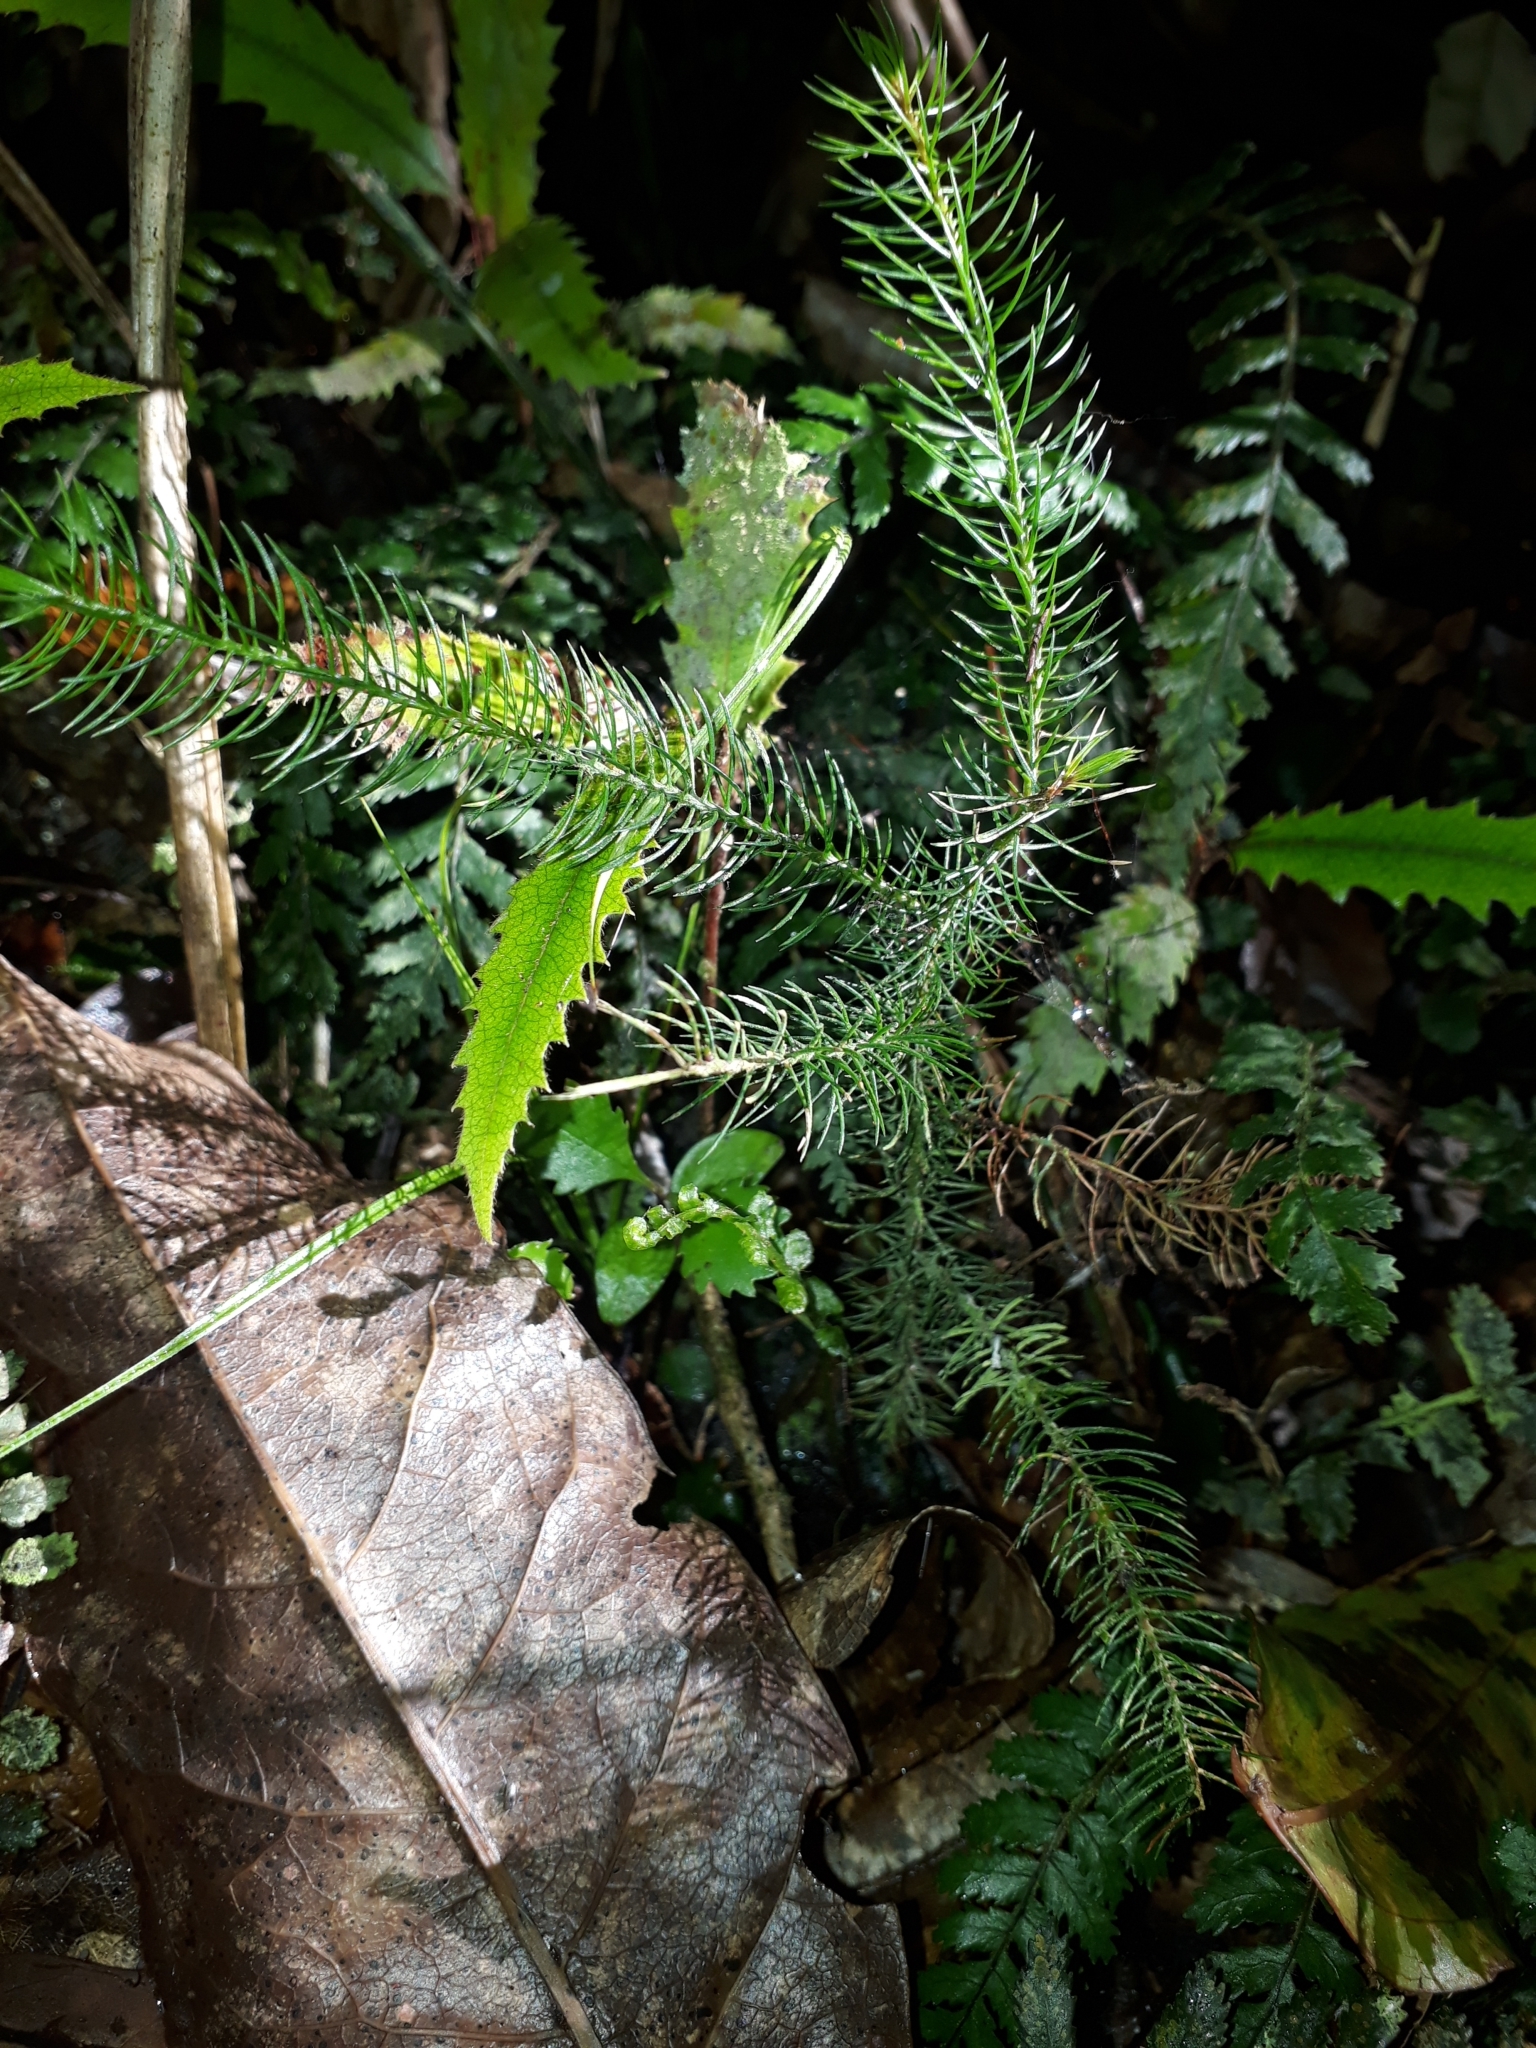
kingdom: Plantae
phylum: Tracheophyta
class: Pinopsida
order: Pinales
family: Podocarpaceae
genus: Dacrydium
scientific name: Dacrydium cupressinum
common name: Red pine
